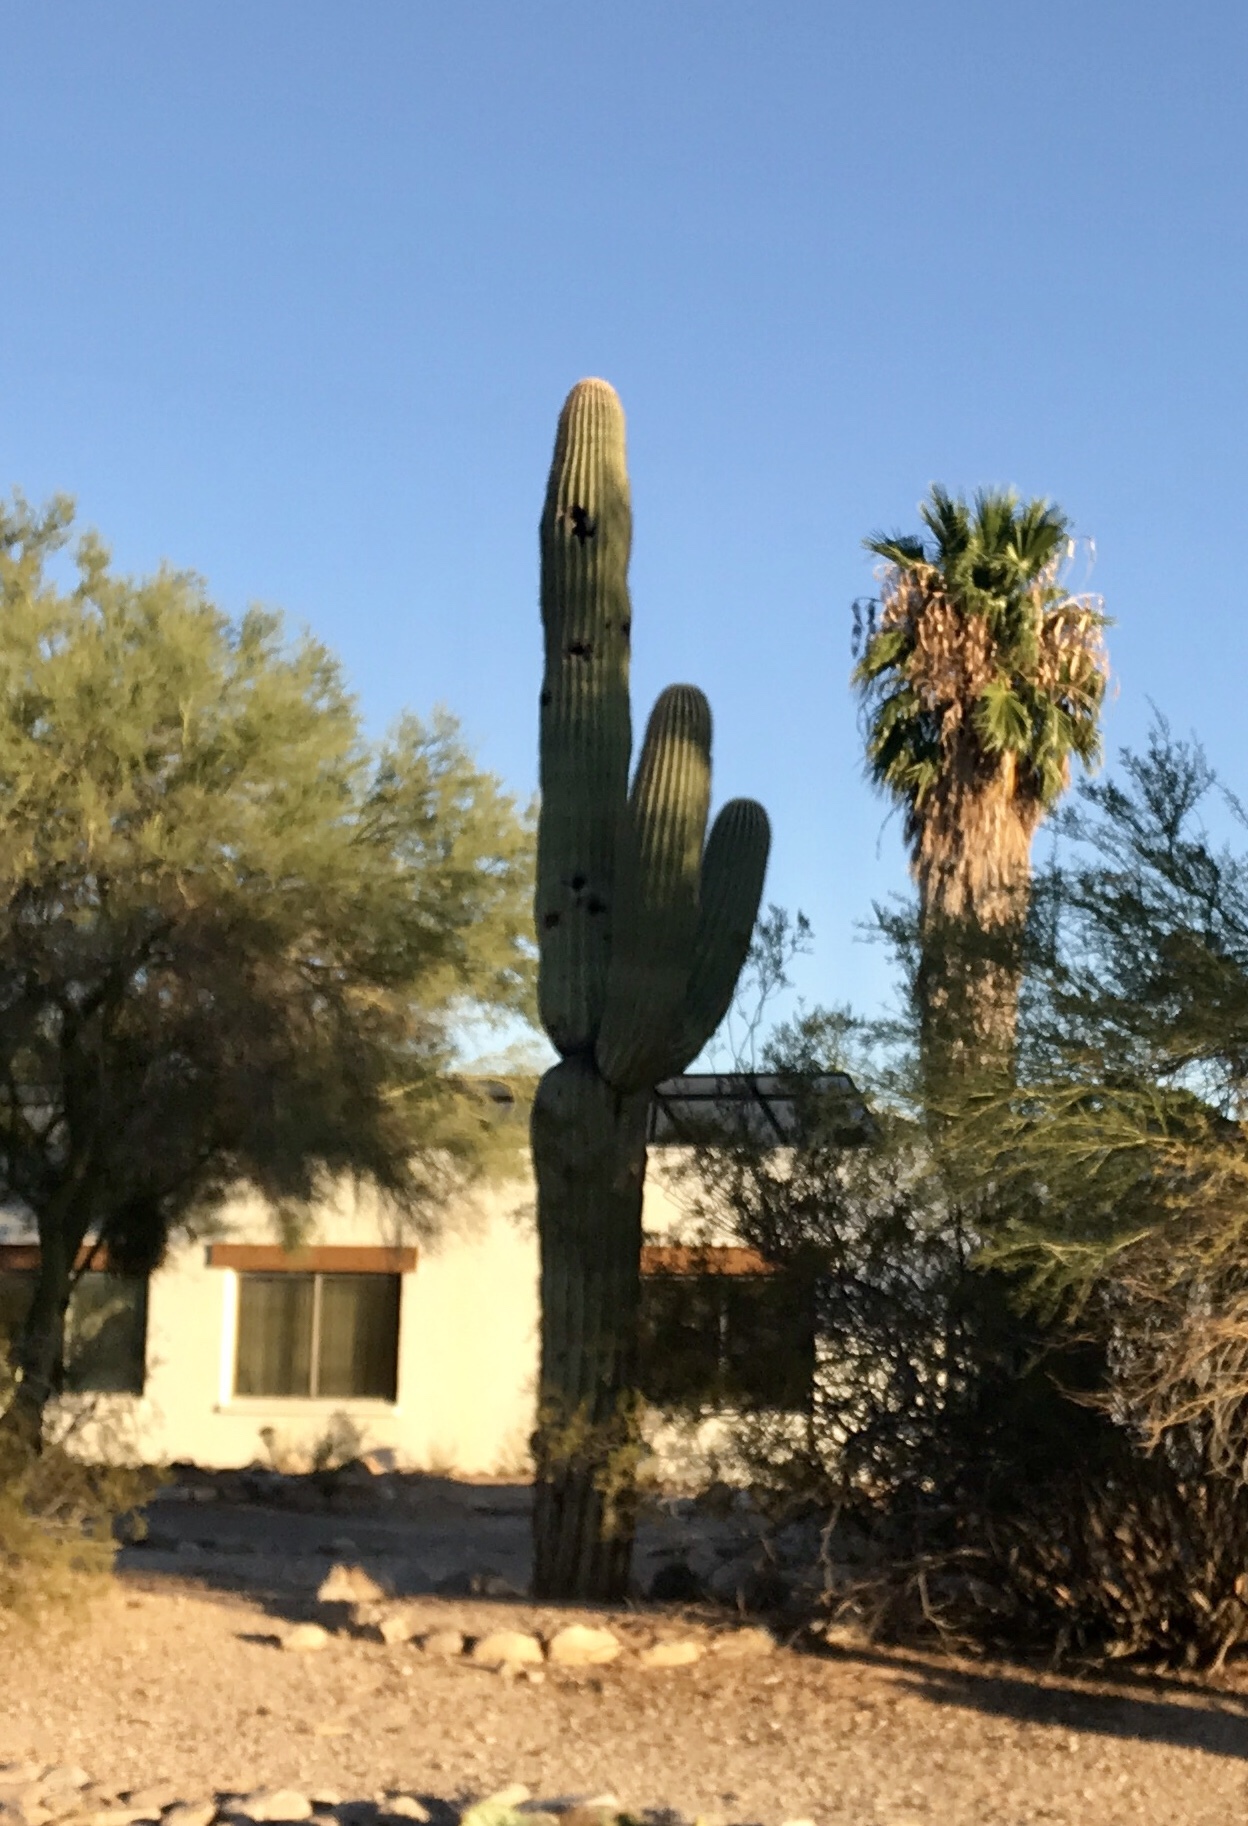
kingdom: Plantae
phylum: Tracheophyta
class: Magnoliopsida
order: Caryophyllales
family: Cactaceae
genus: Carnegiea
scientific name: Carnegiea gigantea
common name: Saguaro
